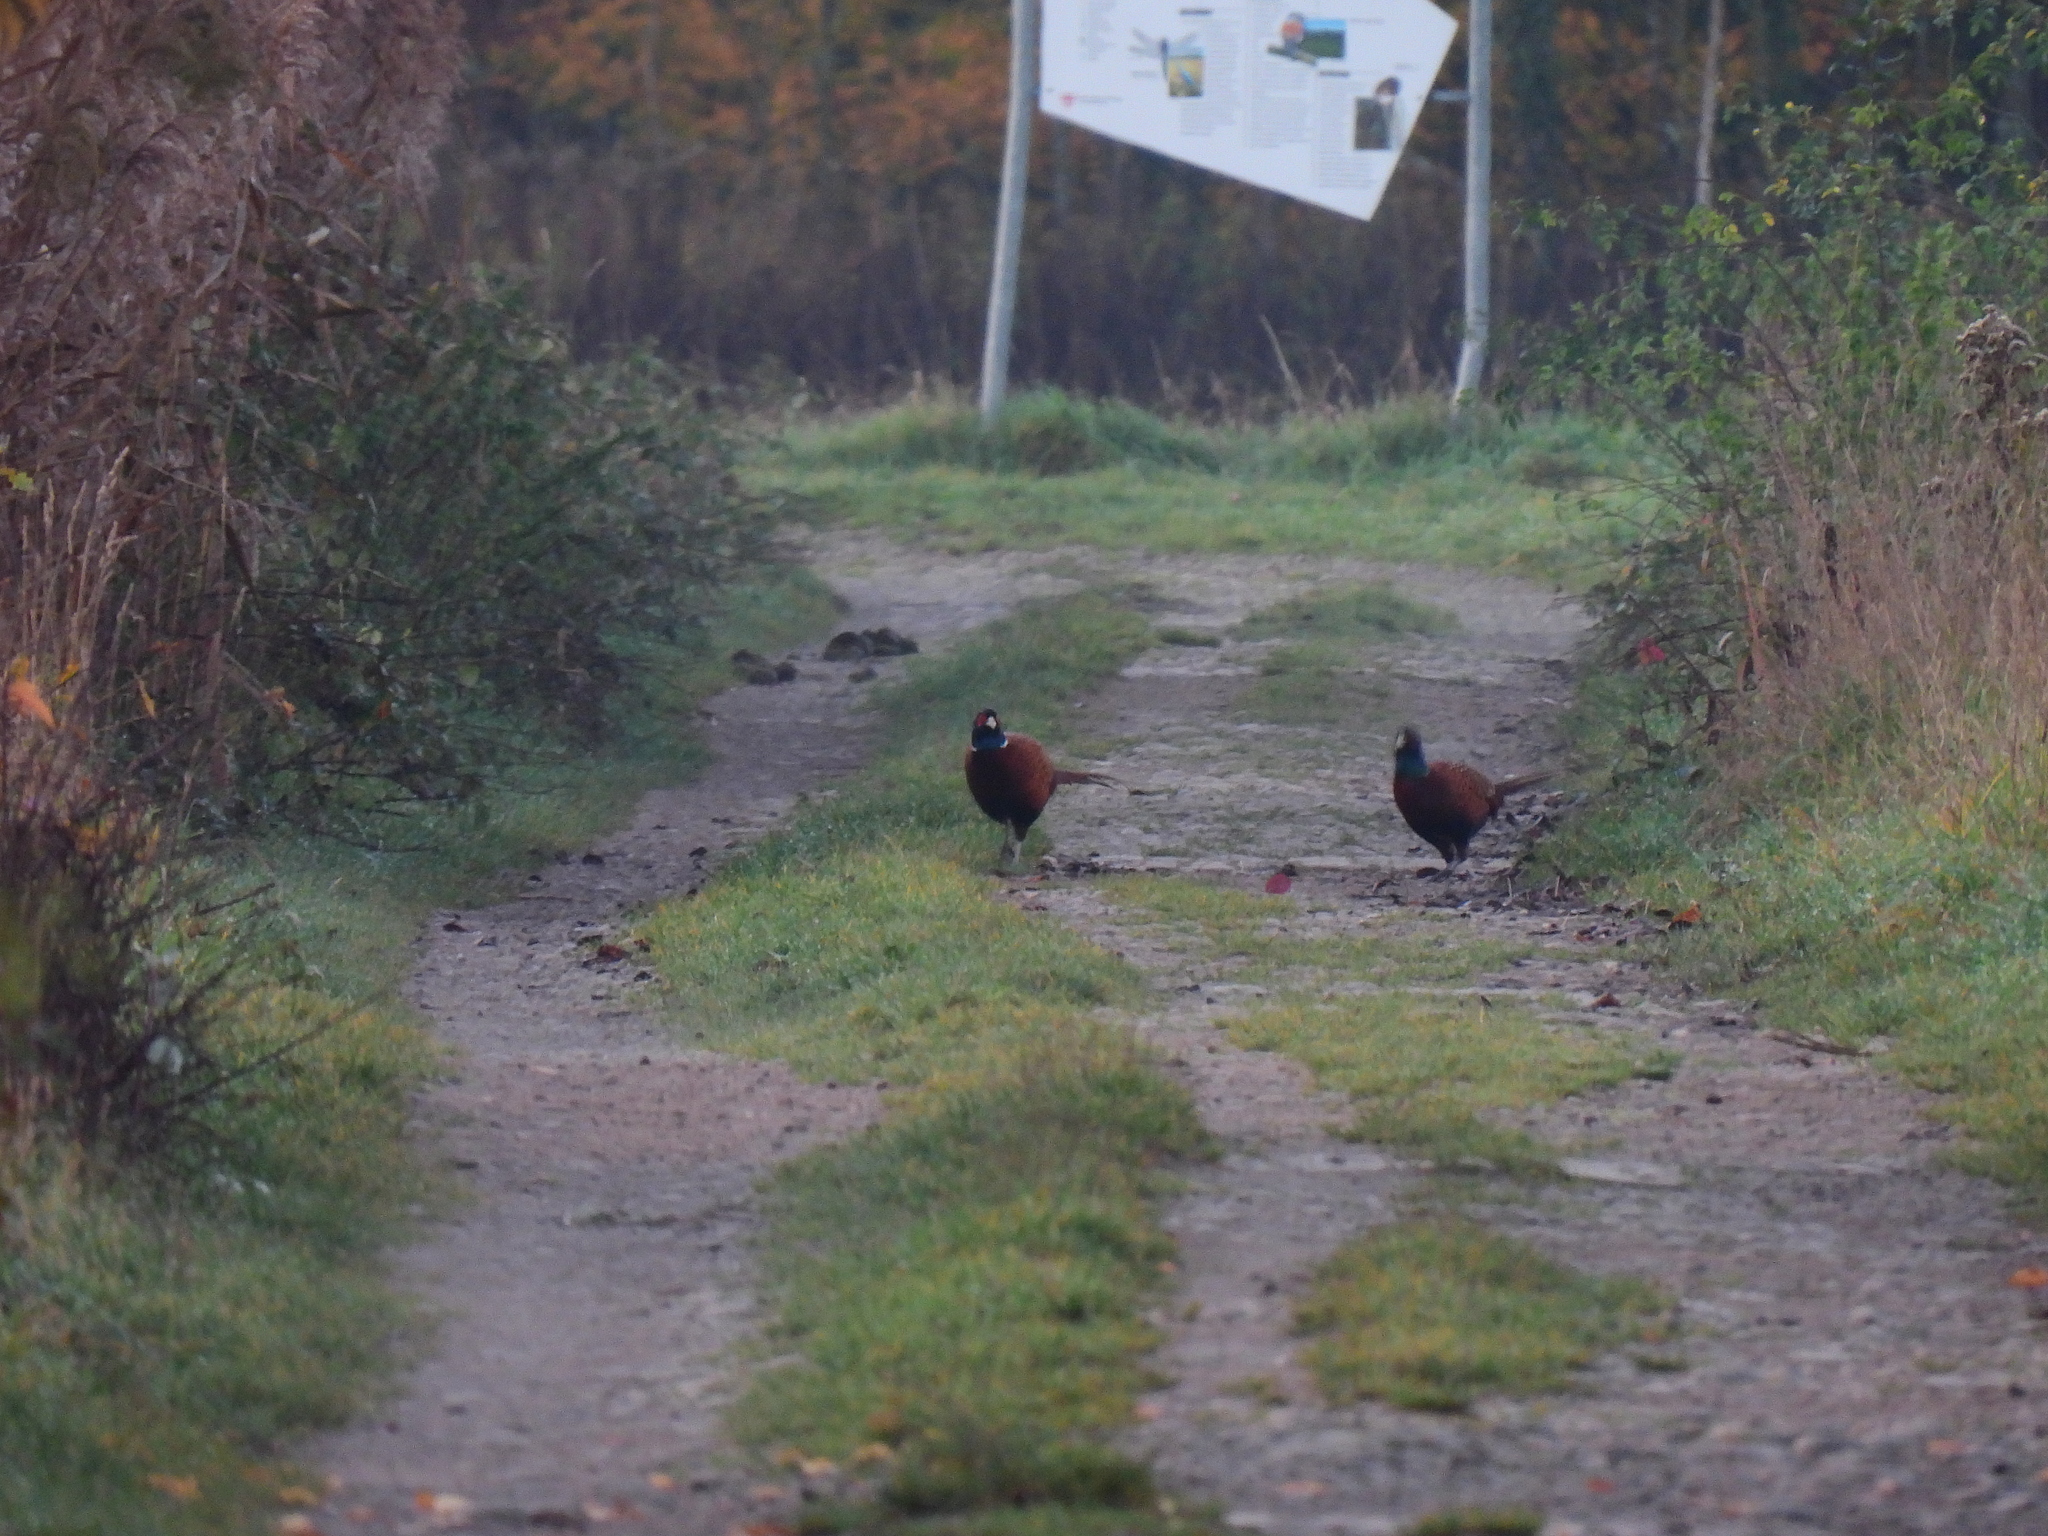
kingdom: Animalia
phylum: Chordata
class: Aves
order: Galliformes
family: Phasianidae
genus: Phasianus
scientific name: Phasianus colchicus
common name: Common pheasant
